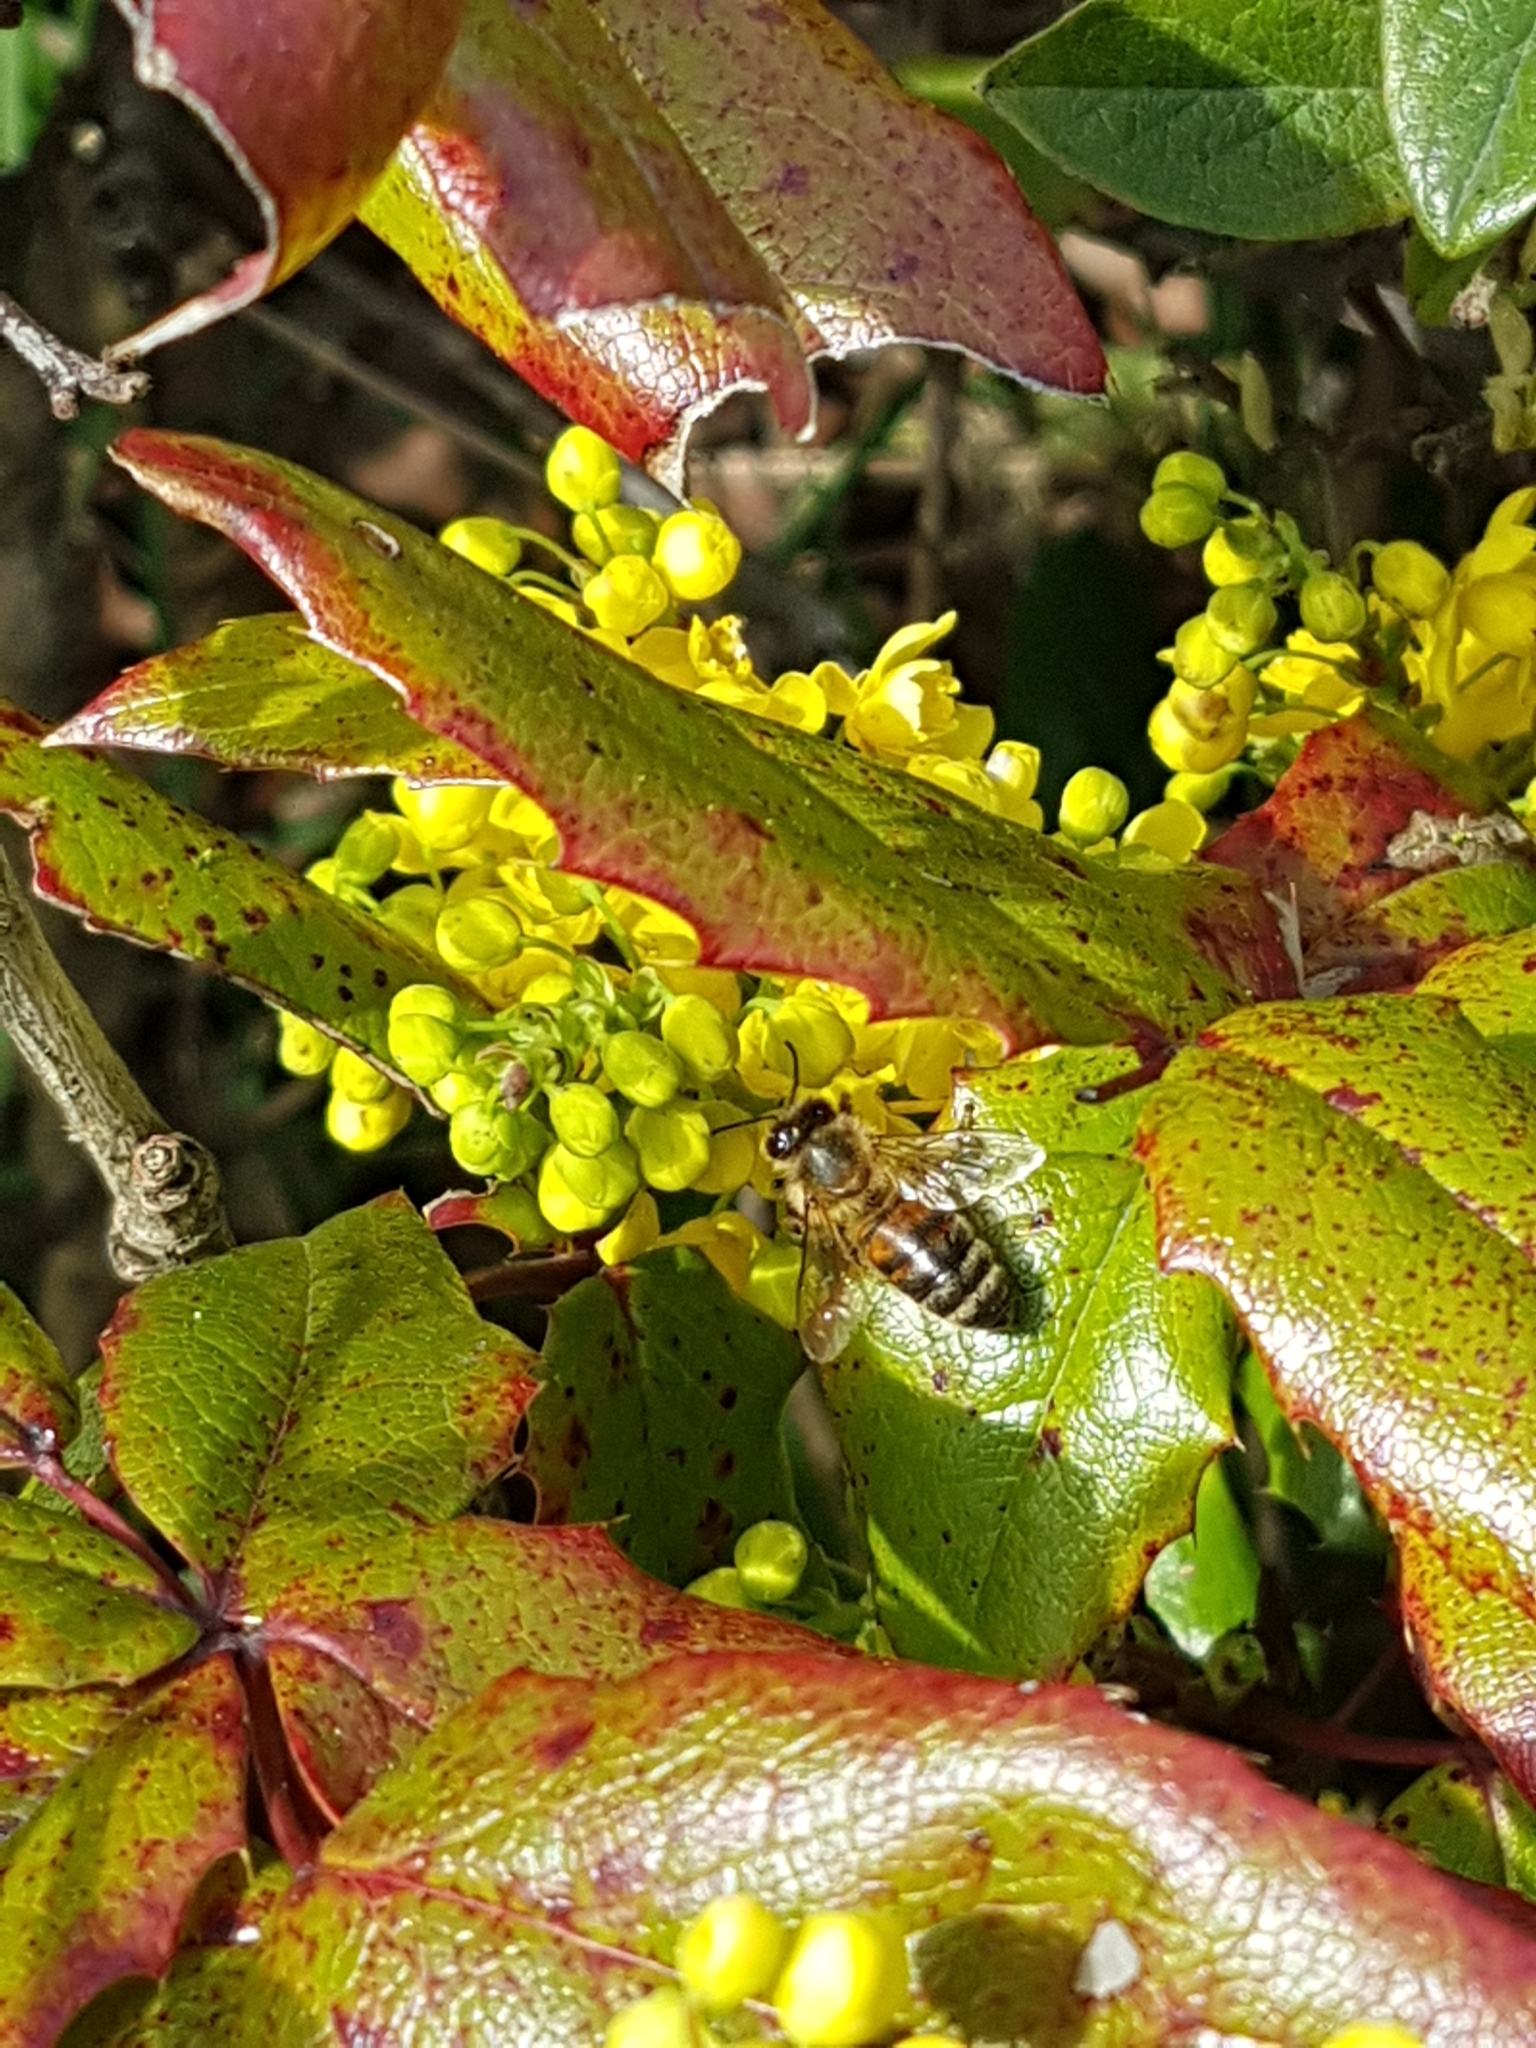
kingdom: Animalia
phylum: Arthropoda
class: Insecta
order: Hymenoptera
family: Apidae
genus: Apis
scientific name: Apis mellifera
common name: Honey bee
